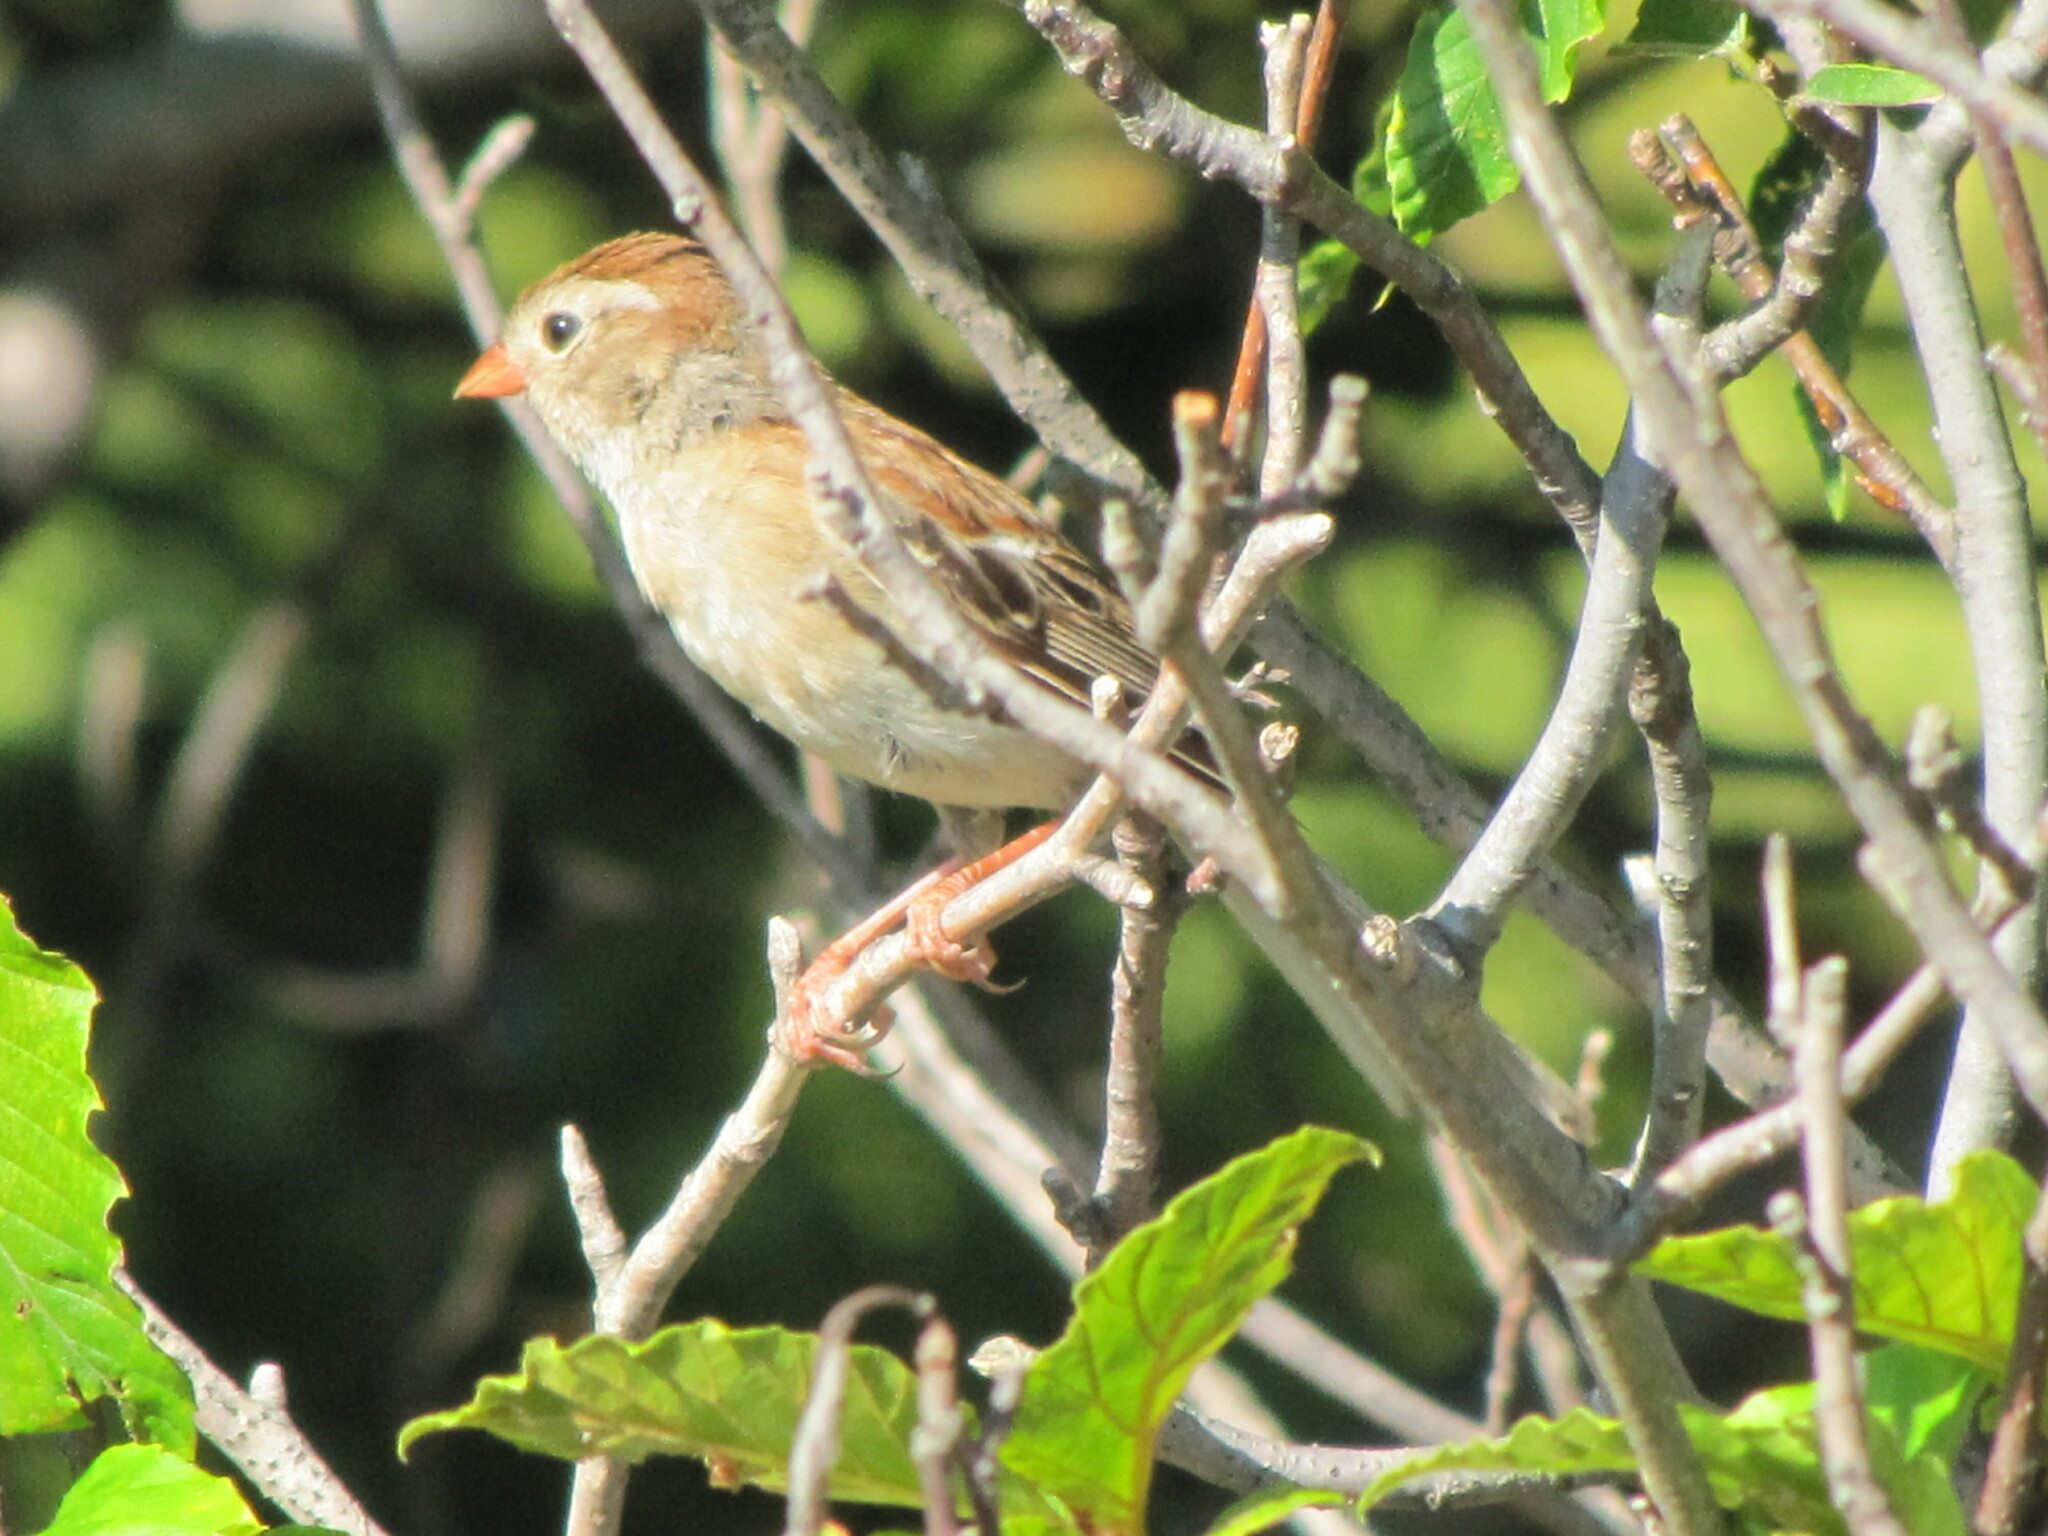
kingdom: Animalia
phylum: Chordata
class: Aves
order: Passeriformes
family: Passerellidae
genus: Spizella
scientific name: Spizella pusilla
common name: Field sparrow
